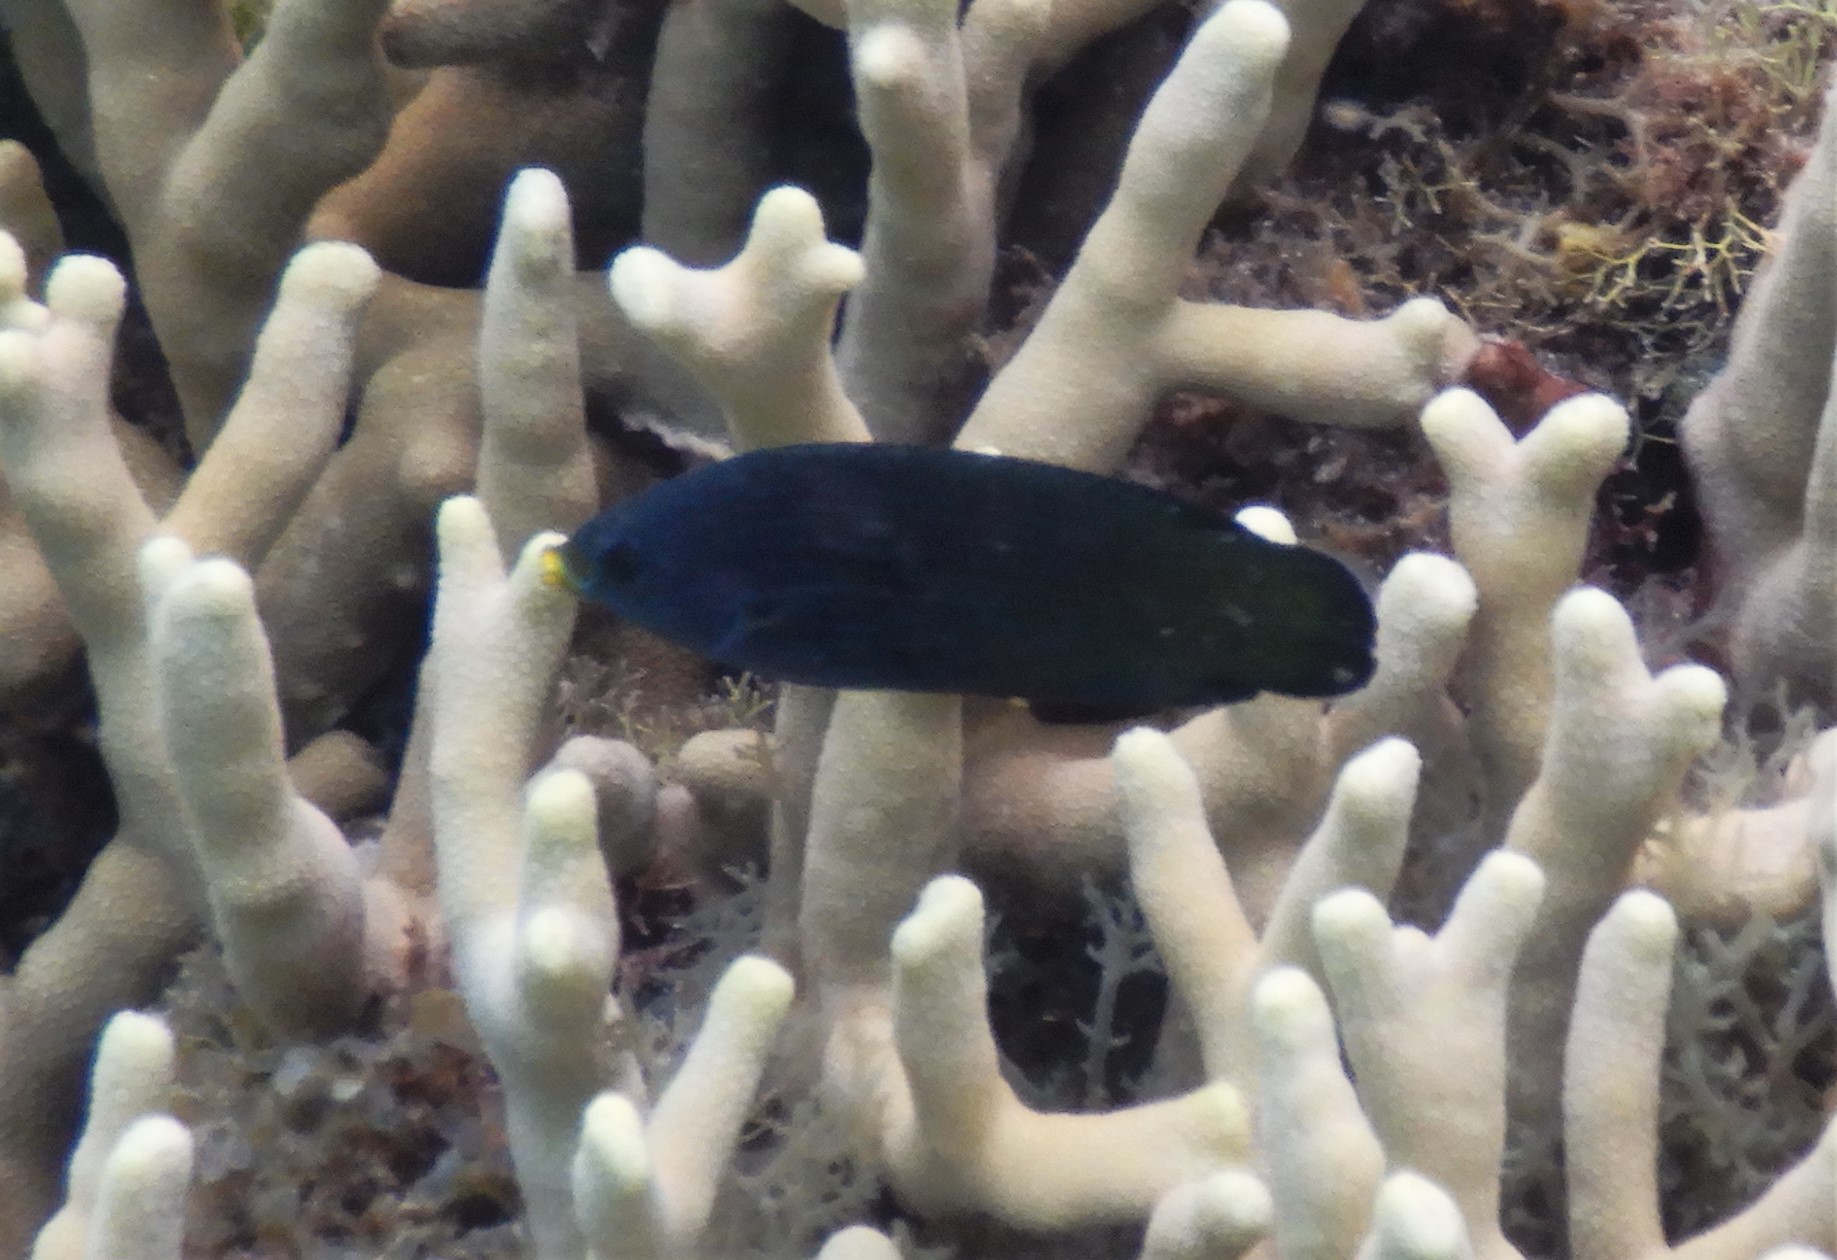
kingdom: Animalia
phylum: Chordata
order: Perciformes
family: Labridae
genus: Labrichthys
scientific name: Labrichthys unilineatus
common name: Onelined wrasse
